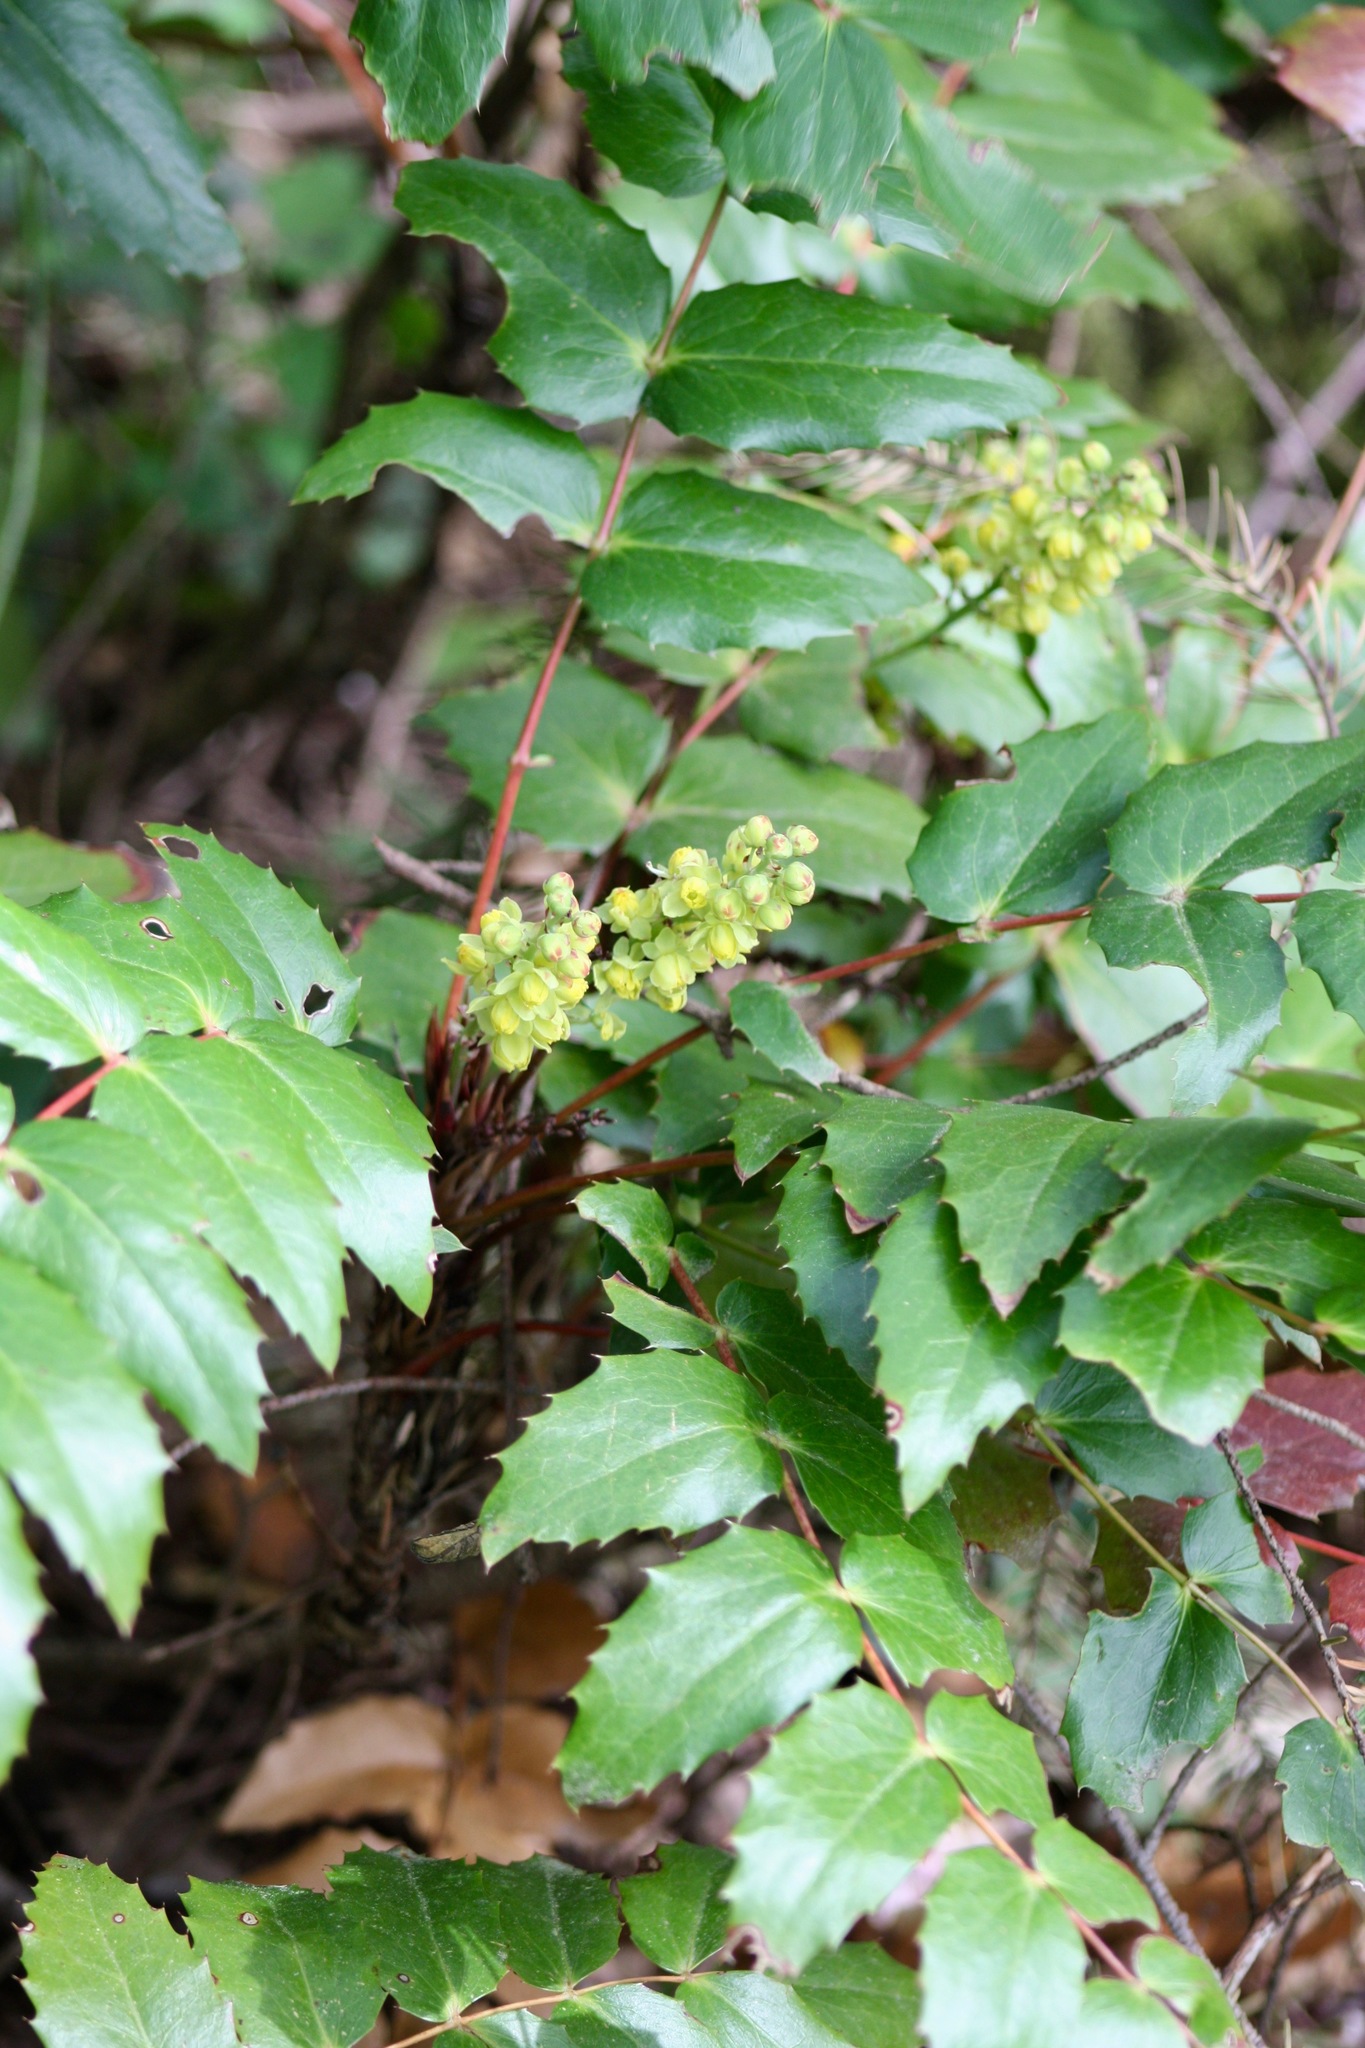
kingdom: Plantae
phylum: Tracheophyta
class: Magnoliopsida
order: Ranunculales
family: Berberidaceae
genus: Mahonia
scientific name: Mahonia nervosa
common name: Cascade oregon-grape
